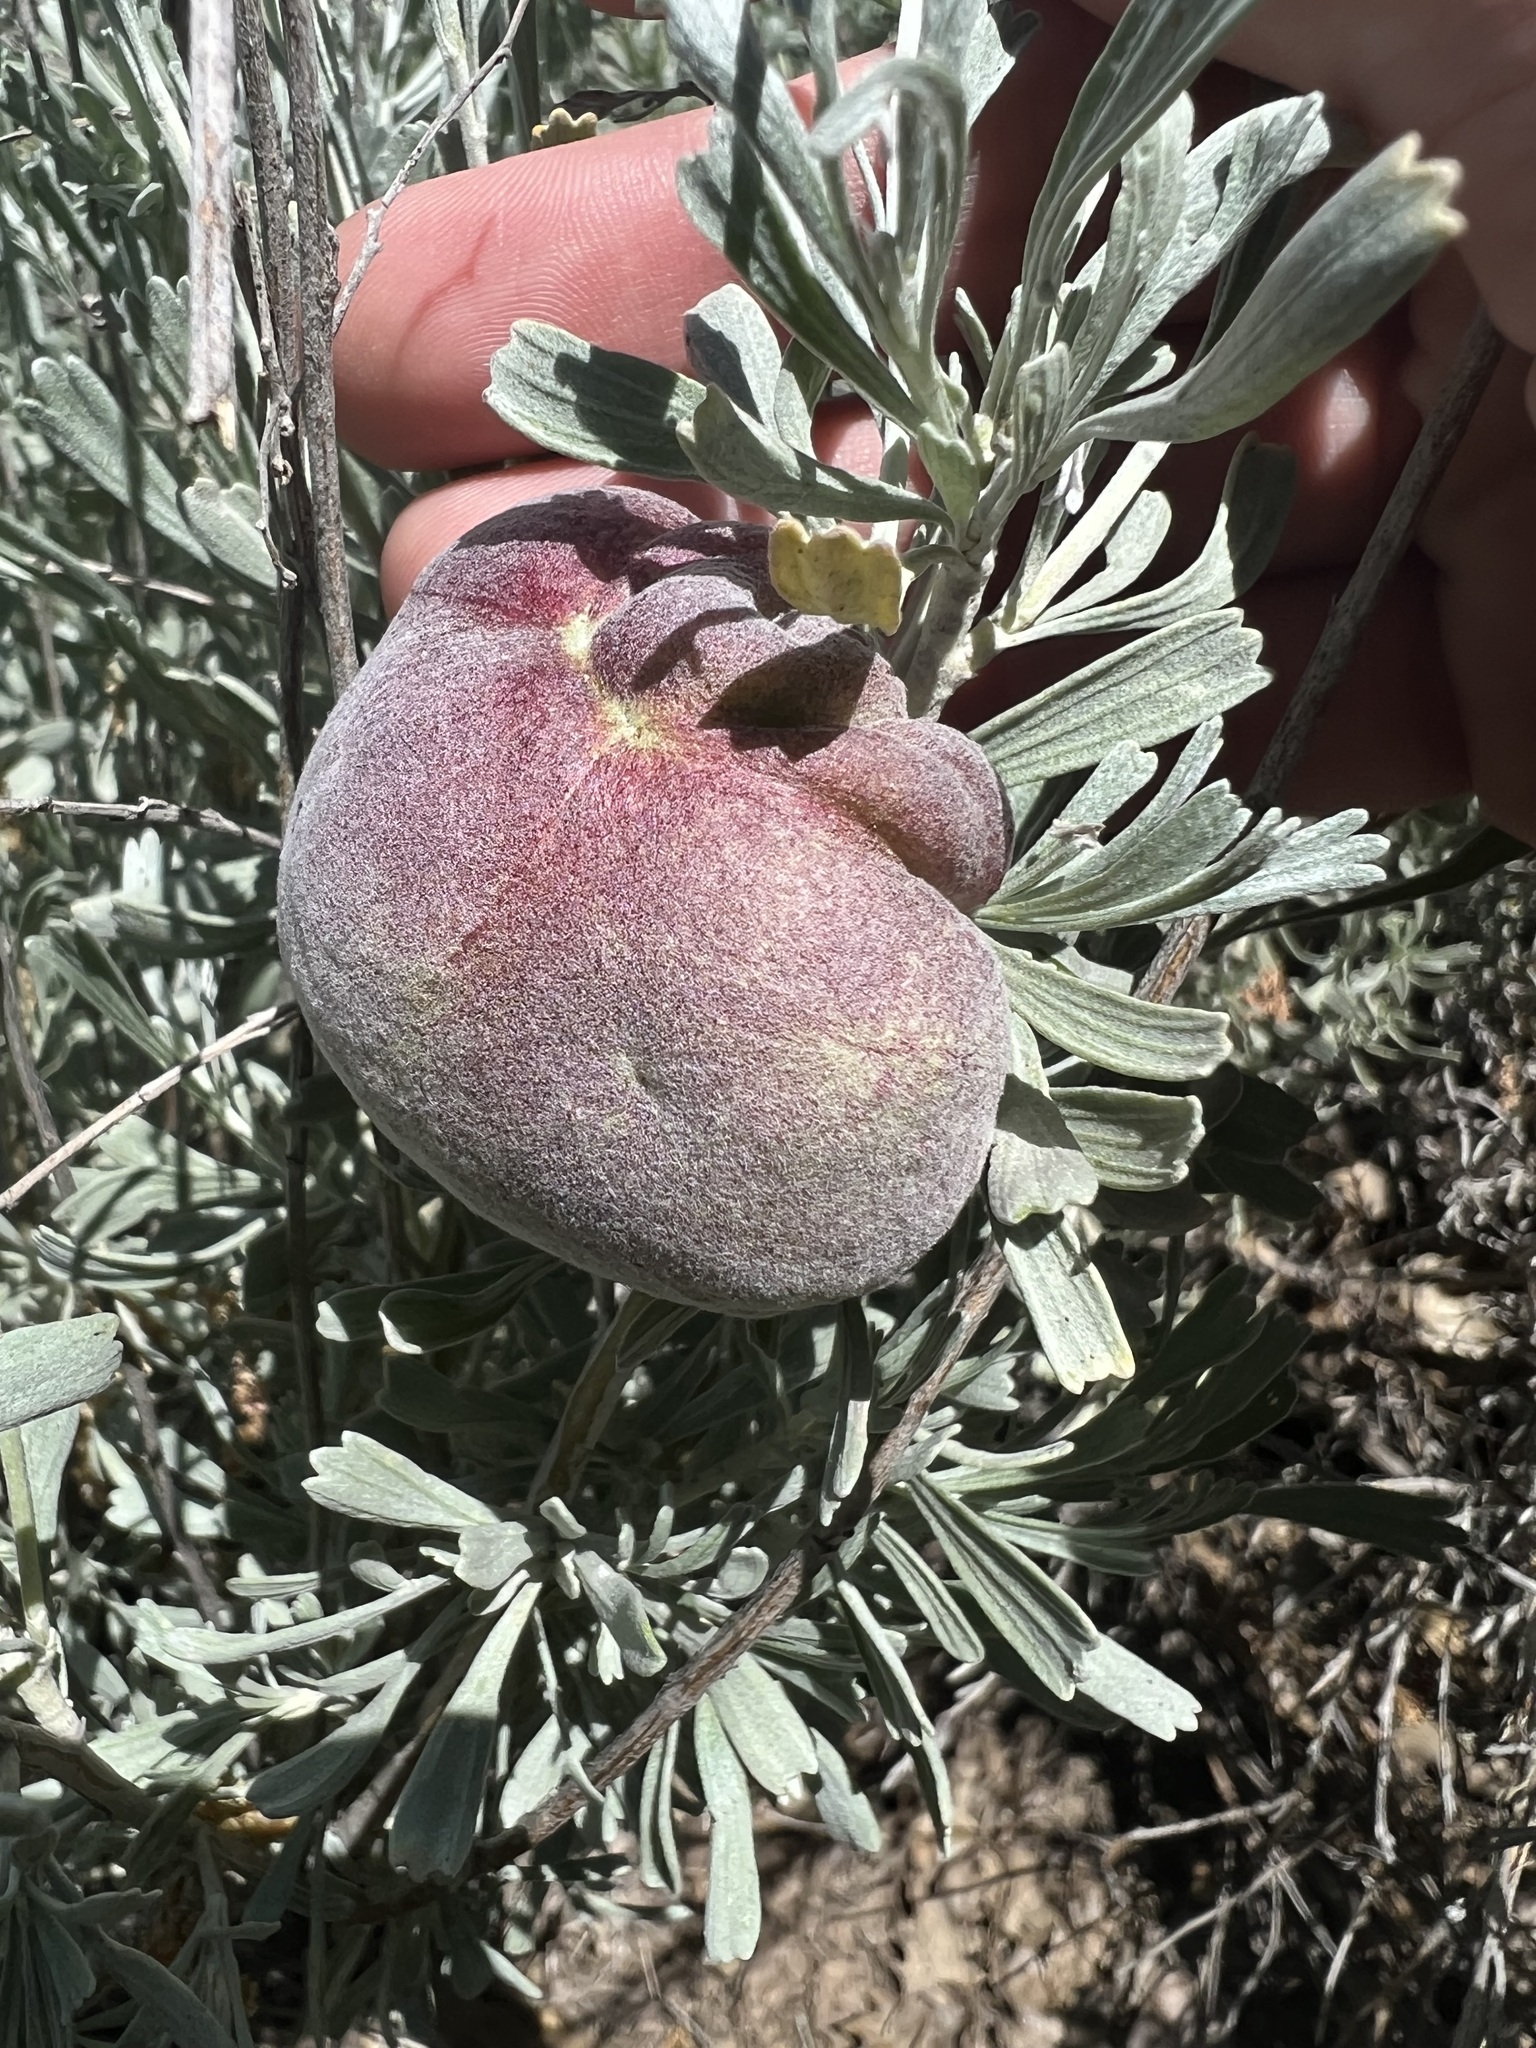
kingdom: Animalia
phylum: Arthropoda
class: Insecta
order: Diptera
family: Cecidomyiidae
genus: Rhopalomyia
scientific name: Rhopalomyia pomum
